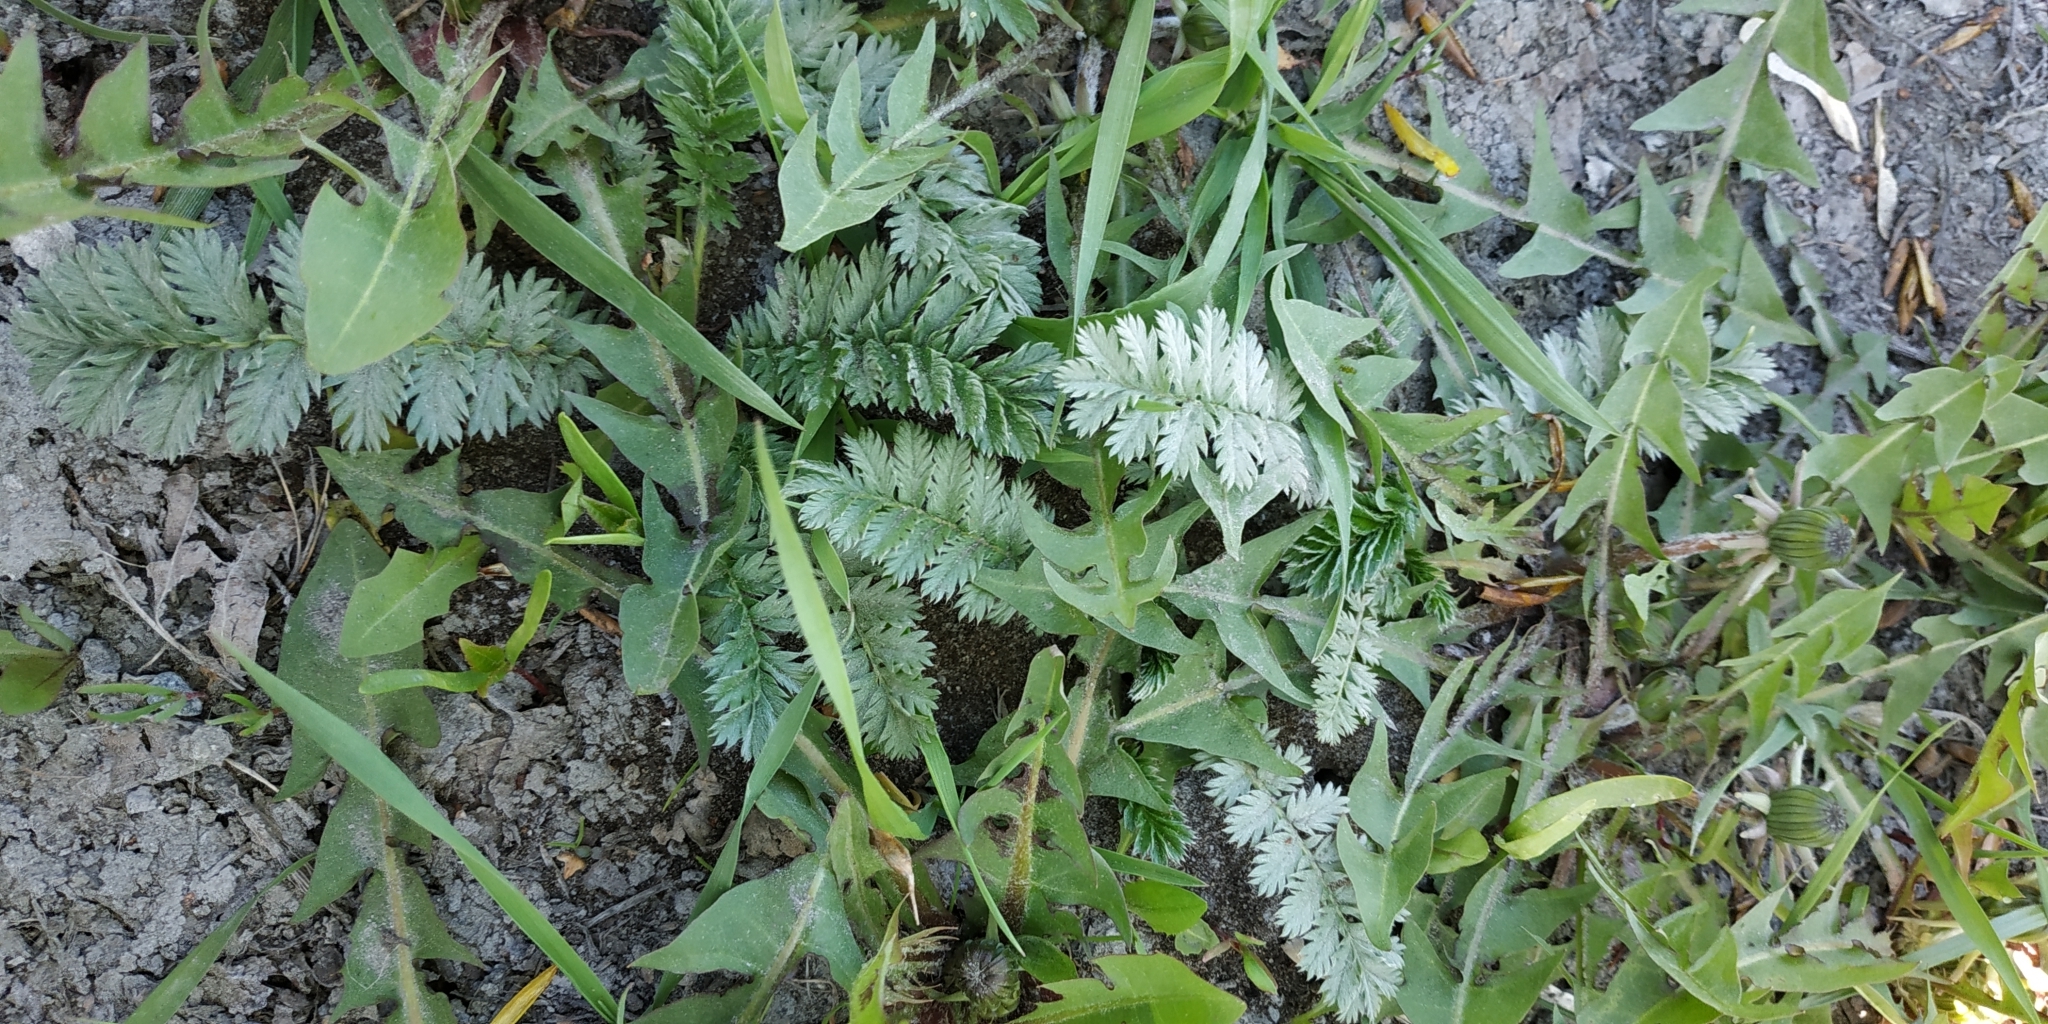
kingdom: Plantae
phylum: Tracheophyta
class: Magnoliopsida
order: Rosales
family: Rosaceae
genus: Argentina
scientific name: Argentina anserina
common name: Common silverweed
